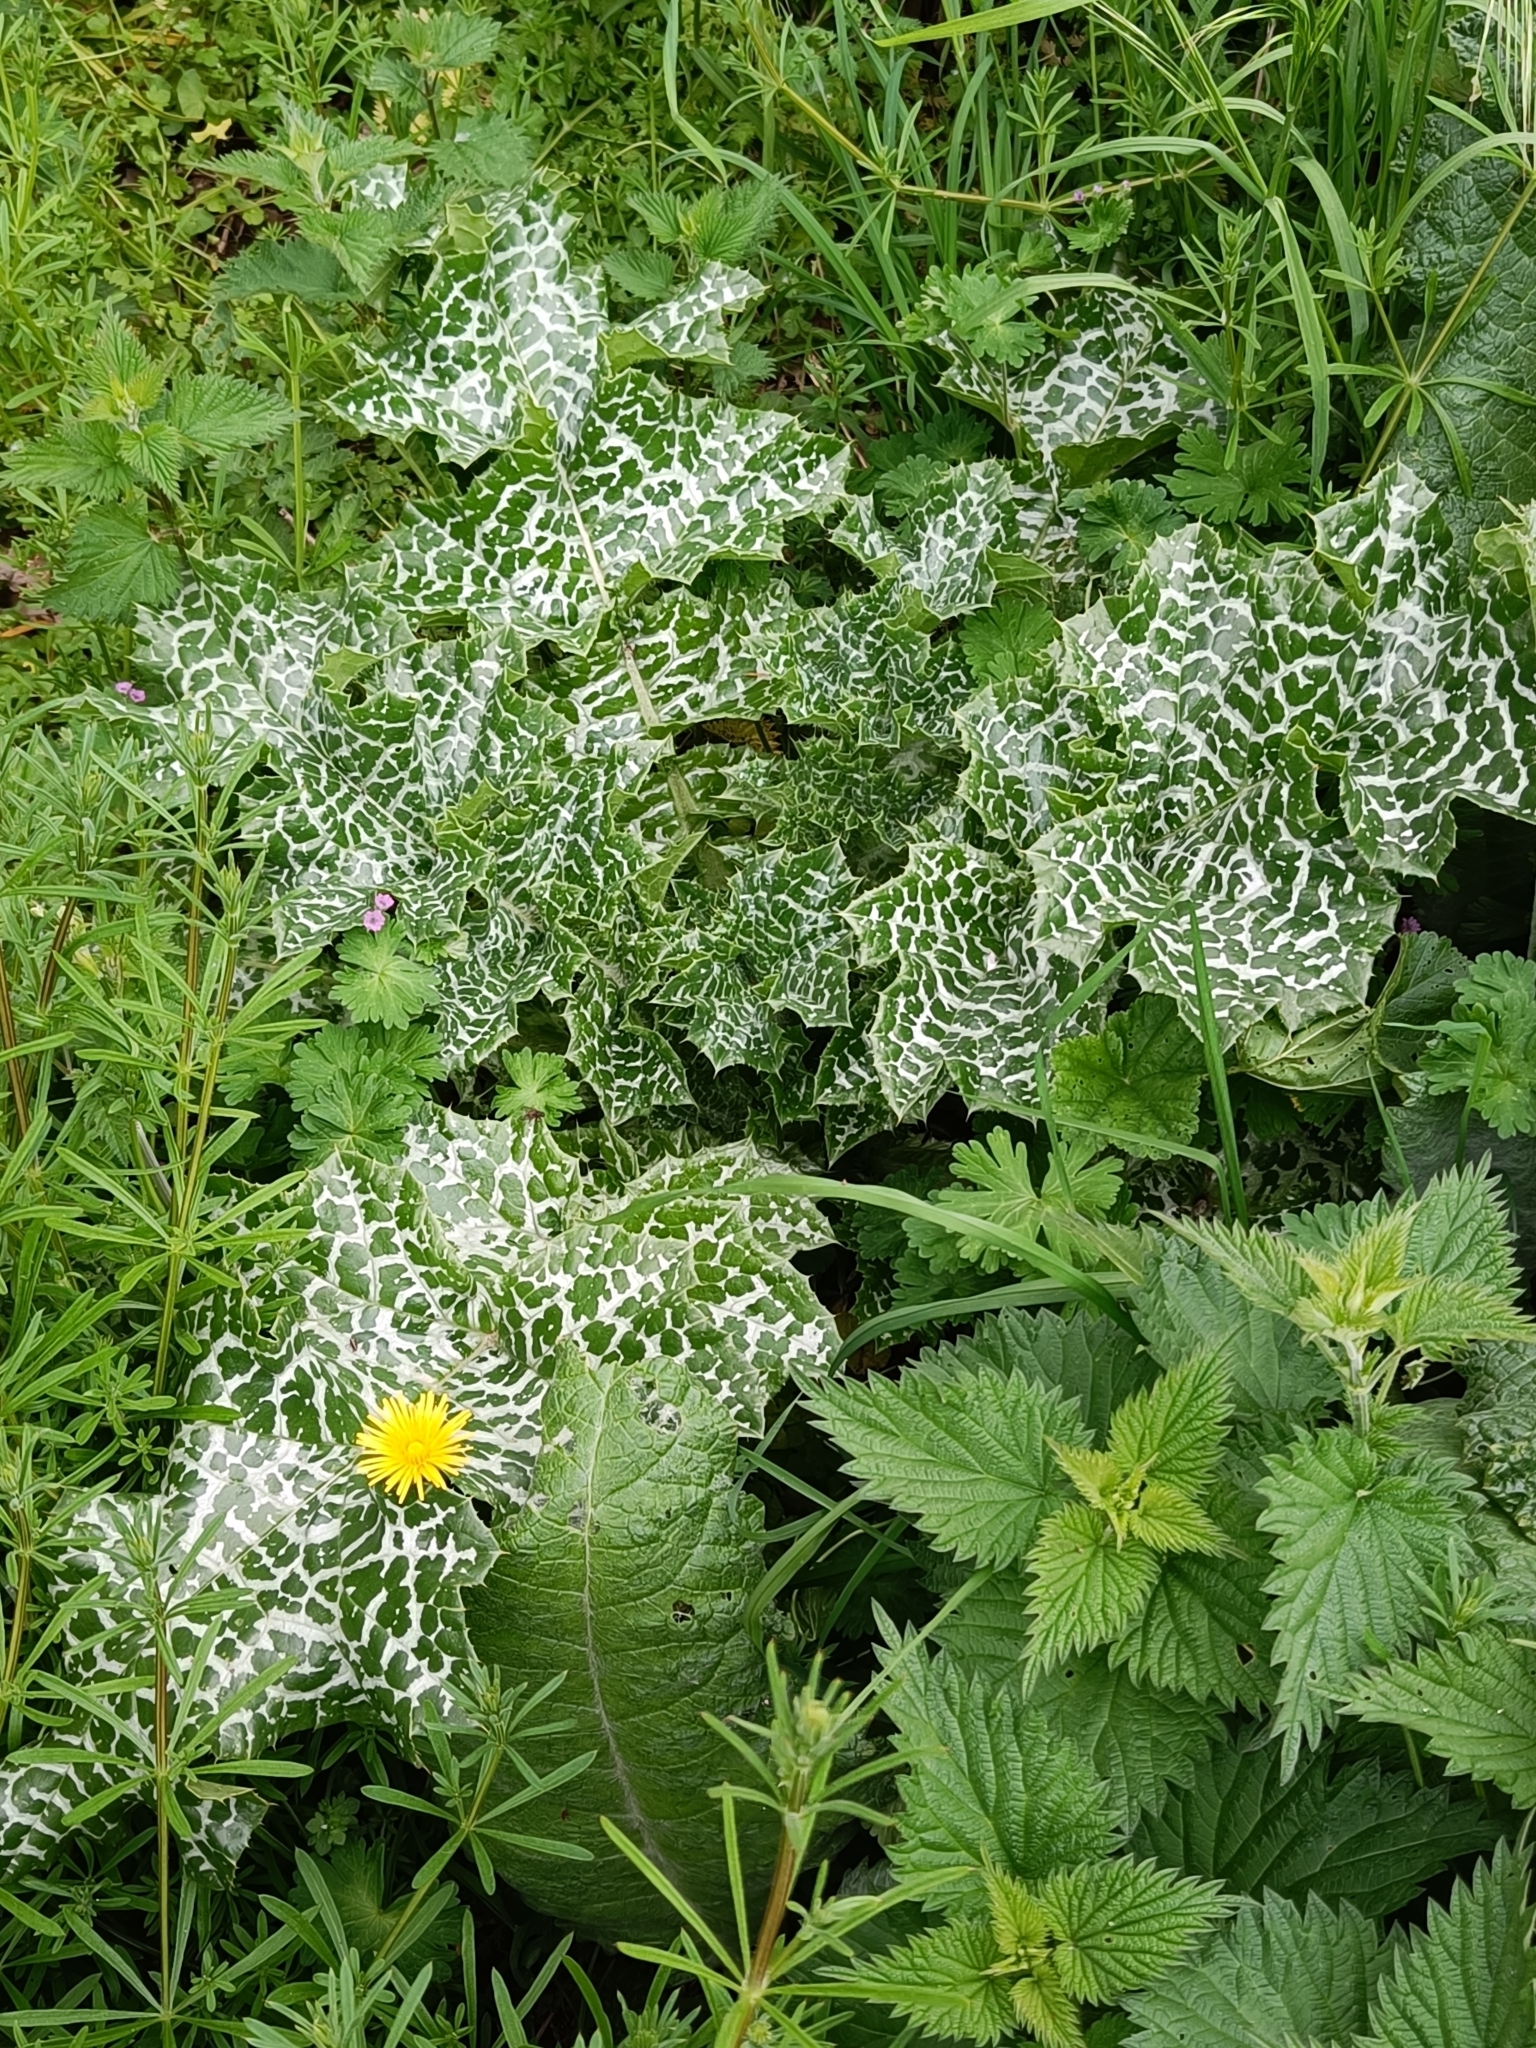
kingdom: Plantae
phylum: Tracheophyta
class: Magnoliopsida
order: Asterales
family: Asteraceae
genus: Silybum
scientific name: Silybum marianum
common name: Milk thistle
